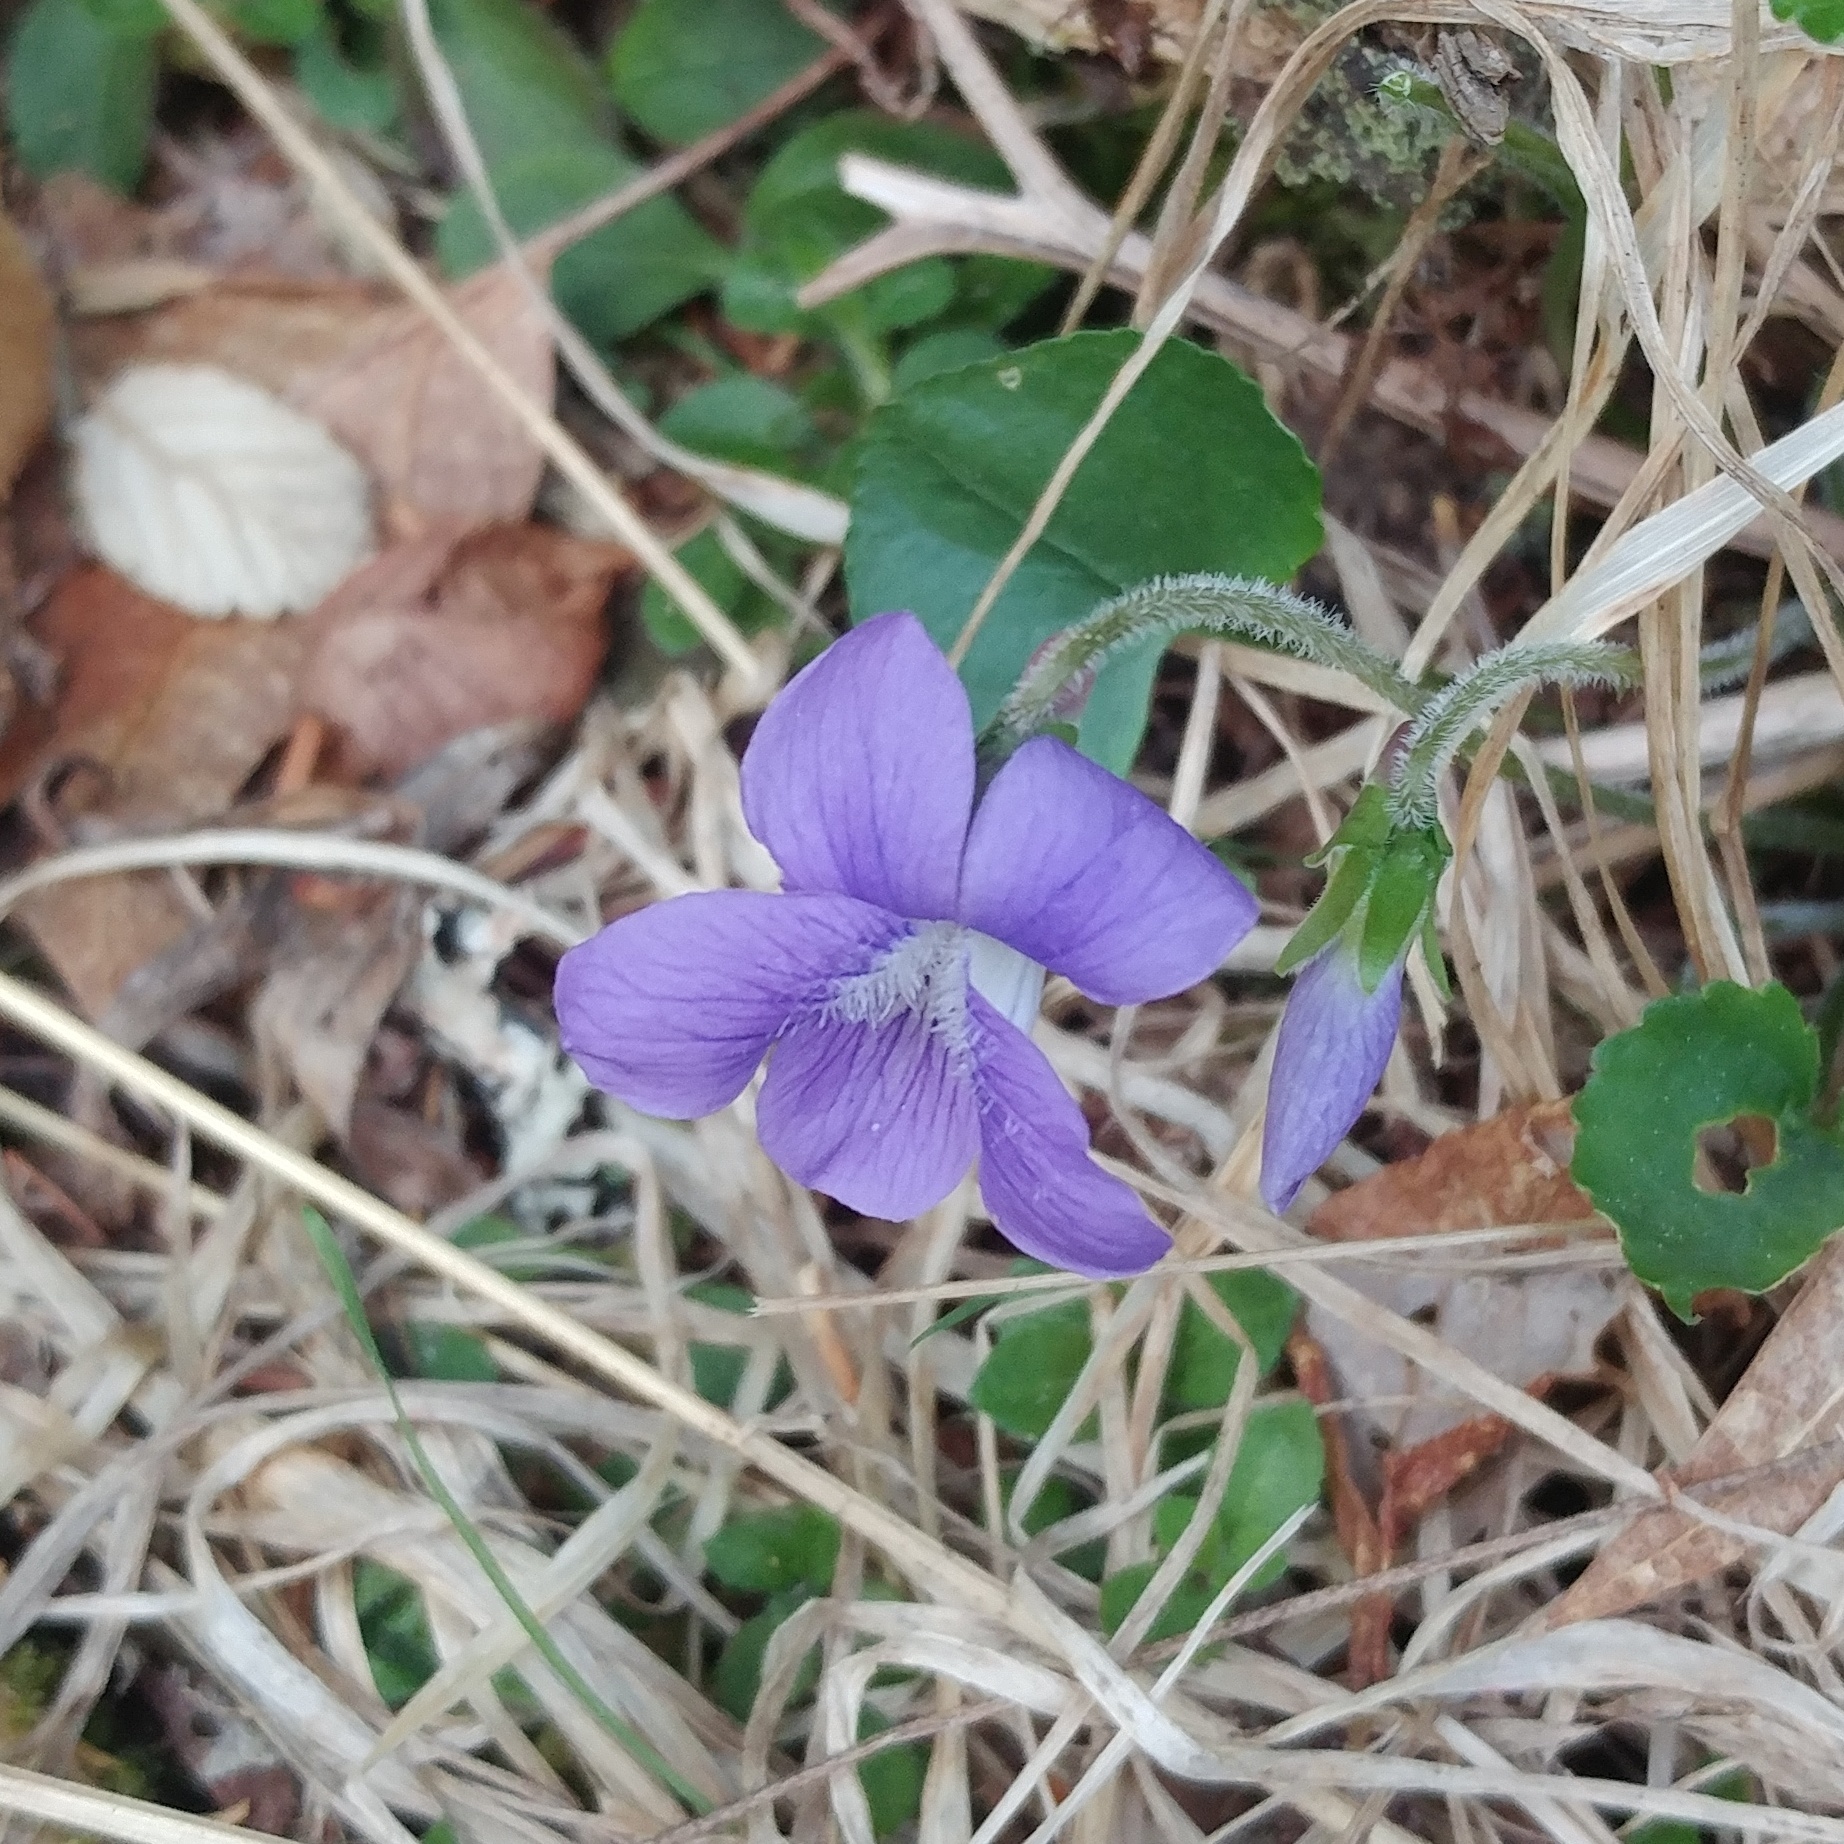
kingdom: Plantae
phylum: Tracheophyta
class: Magnoliopsida
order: Malpighiales
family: Violaceae
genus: Viola
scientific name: Viola sororia
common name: Dooryard violet
